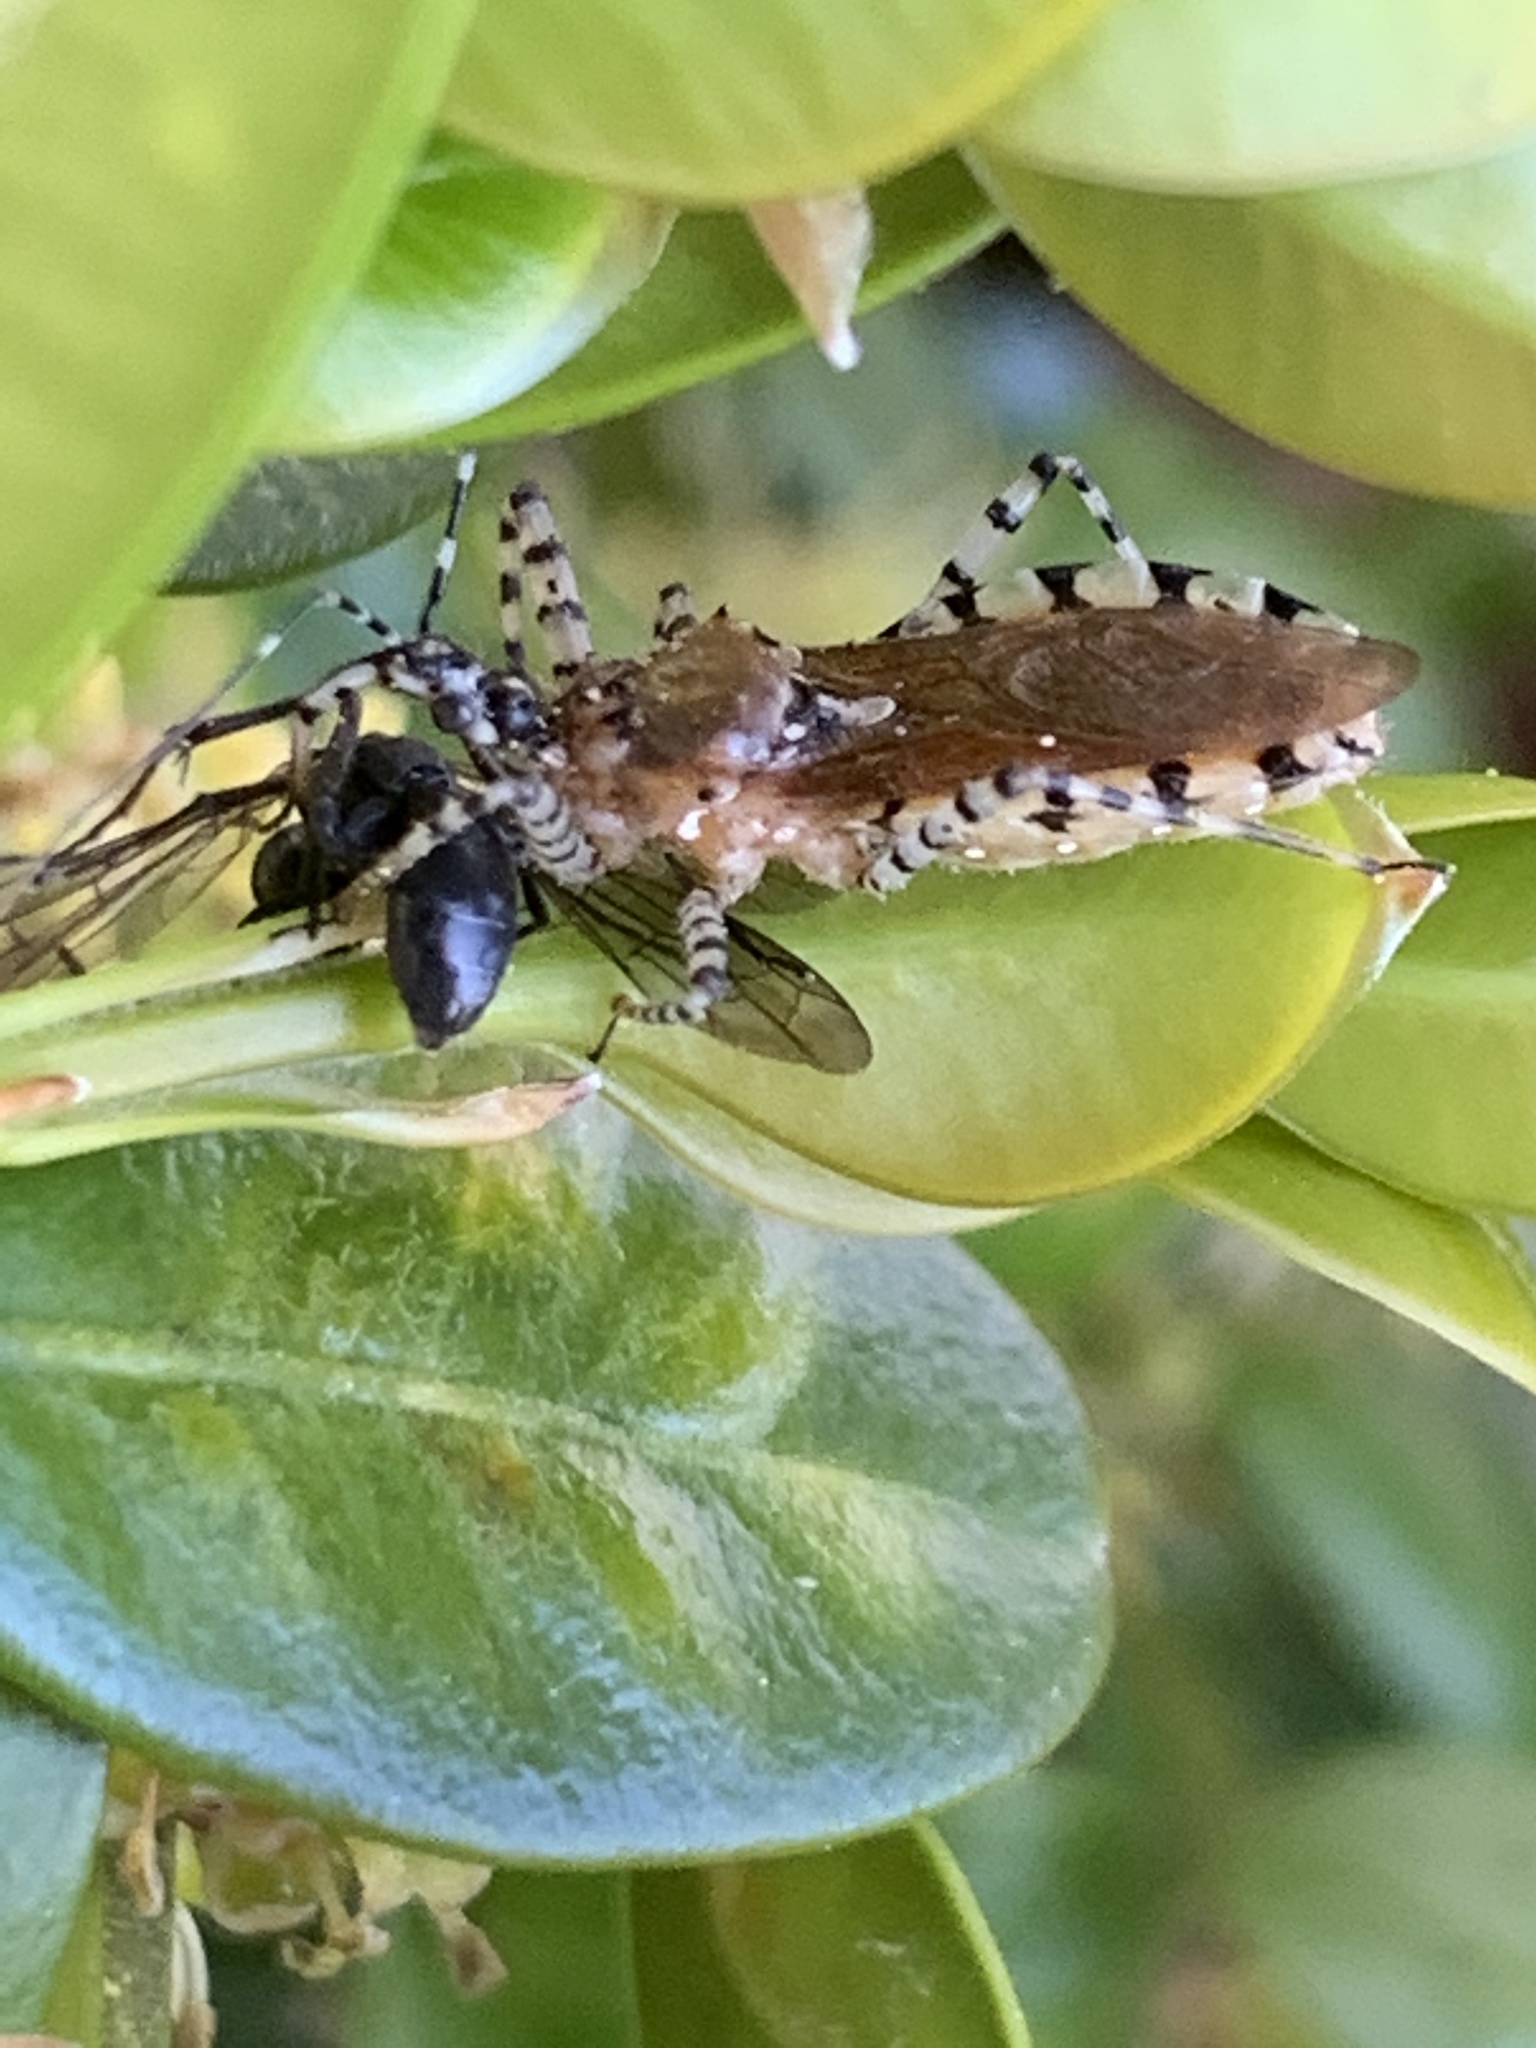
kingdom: Animalia
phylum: Arthropoda
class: Insecta
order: Hemiptera
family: Reduviidae
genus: Pselliopus
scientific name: Pselliopus cinctus
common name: Ringed assassin bug
